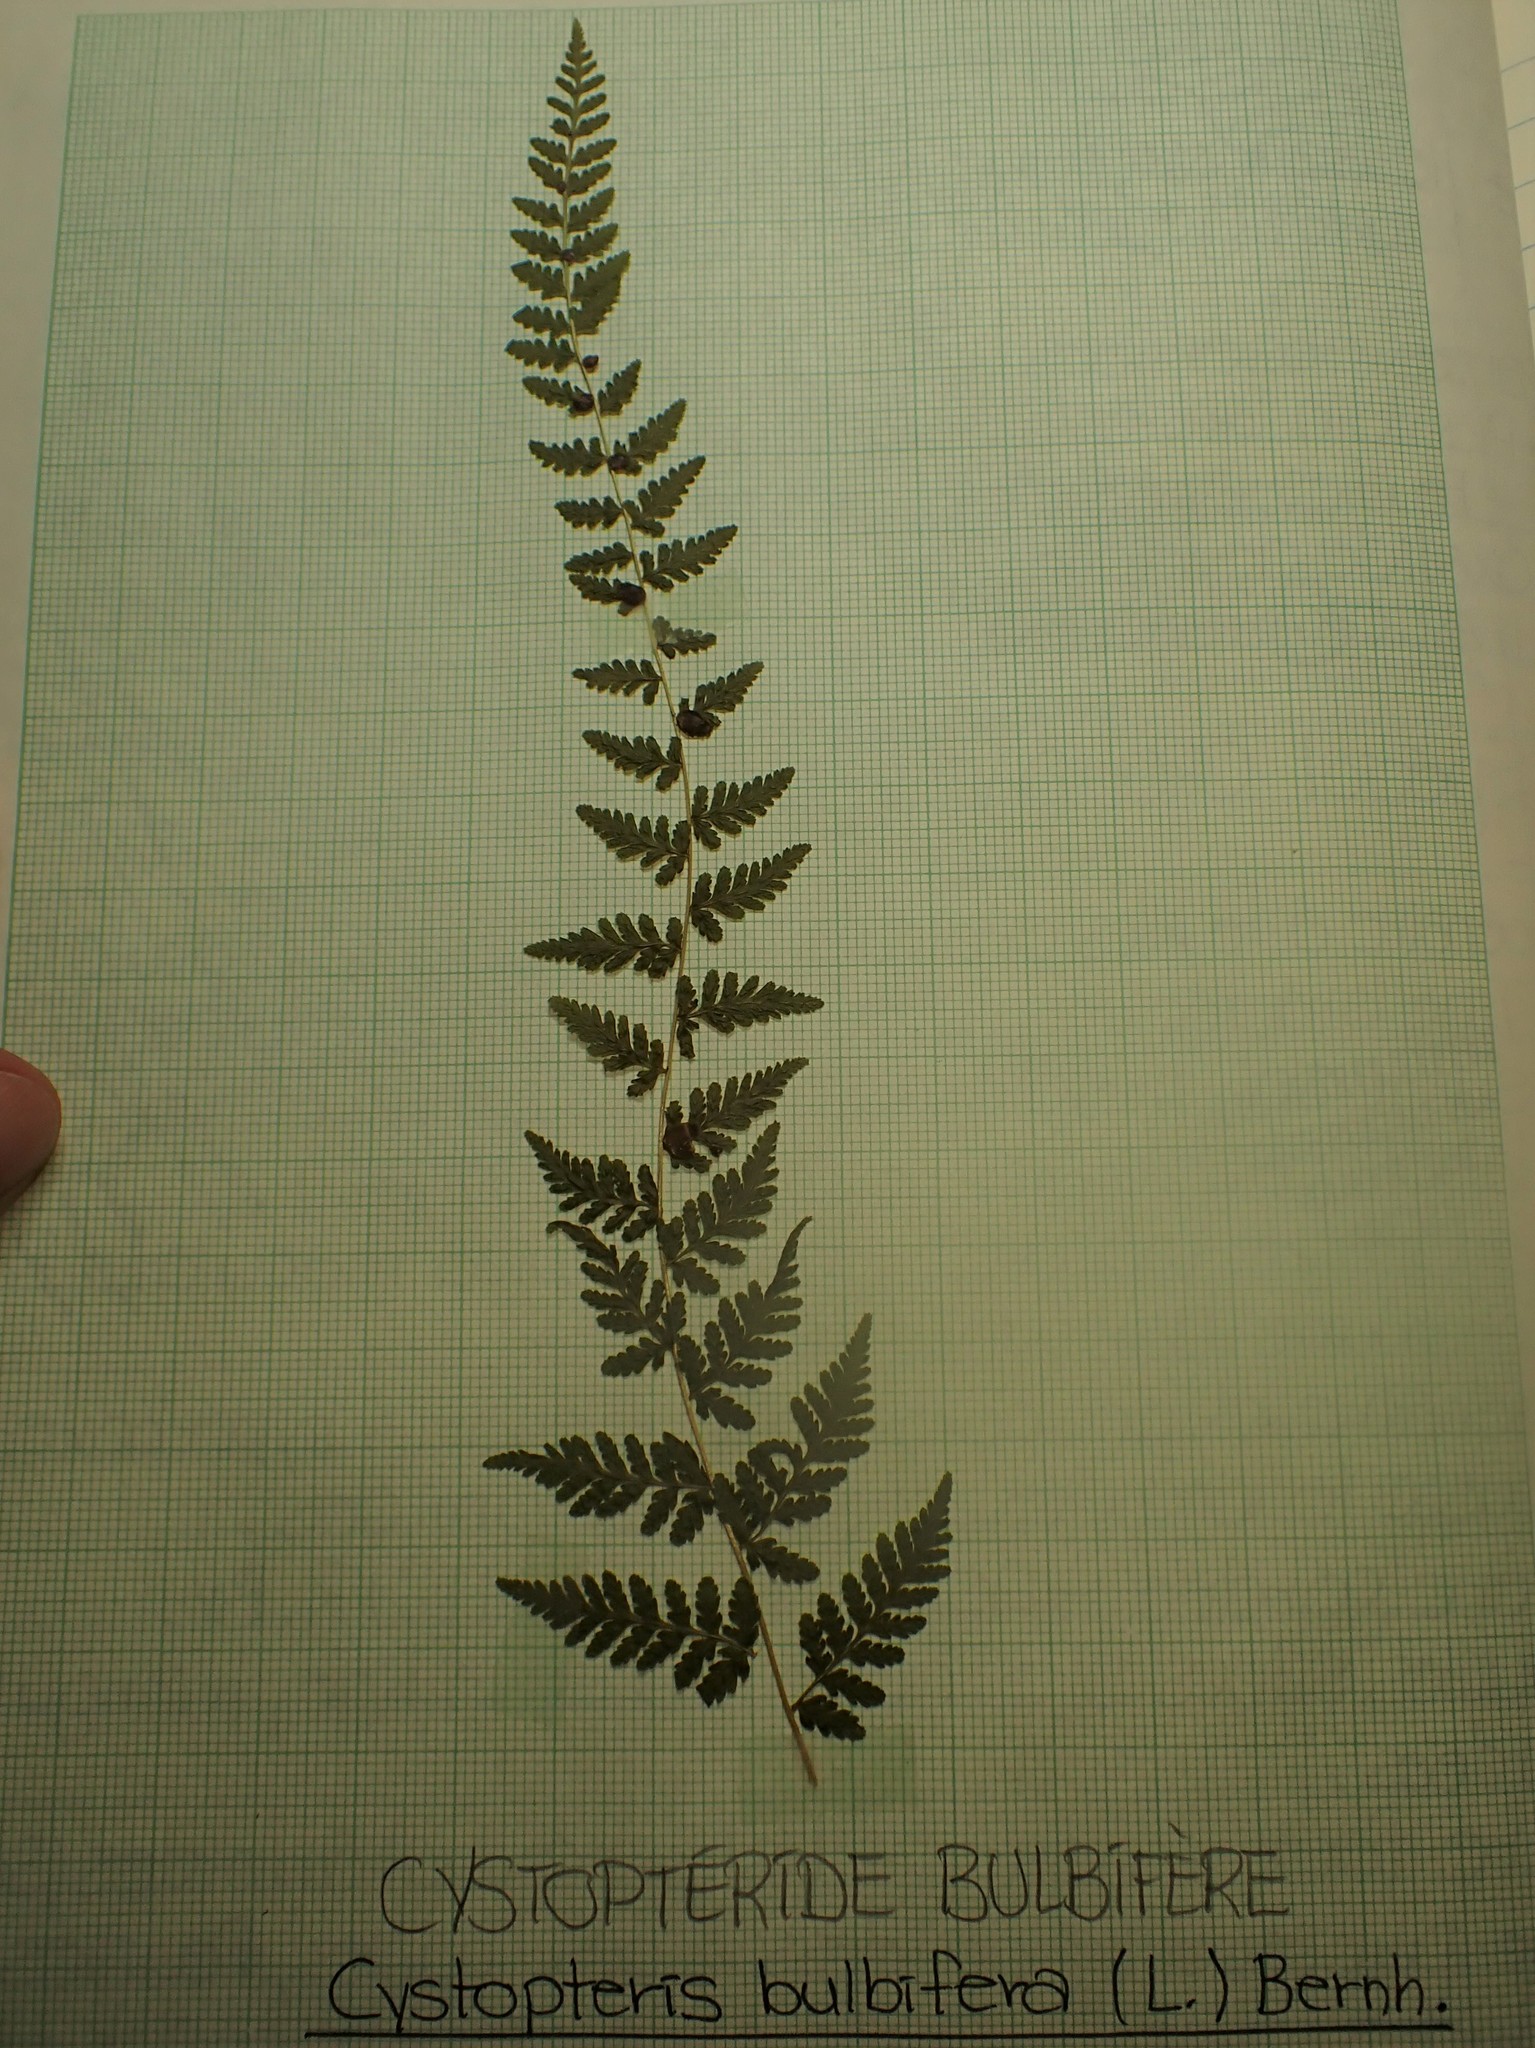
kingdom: Plantae
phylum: Tracheophyta
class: Polypodiopsida
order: Polypodiales
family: Cystopteridaceae
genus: Cystopteris
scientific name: Cystopteris bulbifera
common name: Bulblet bladder fern
